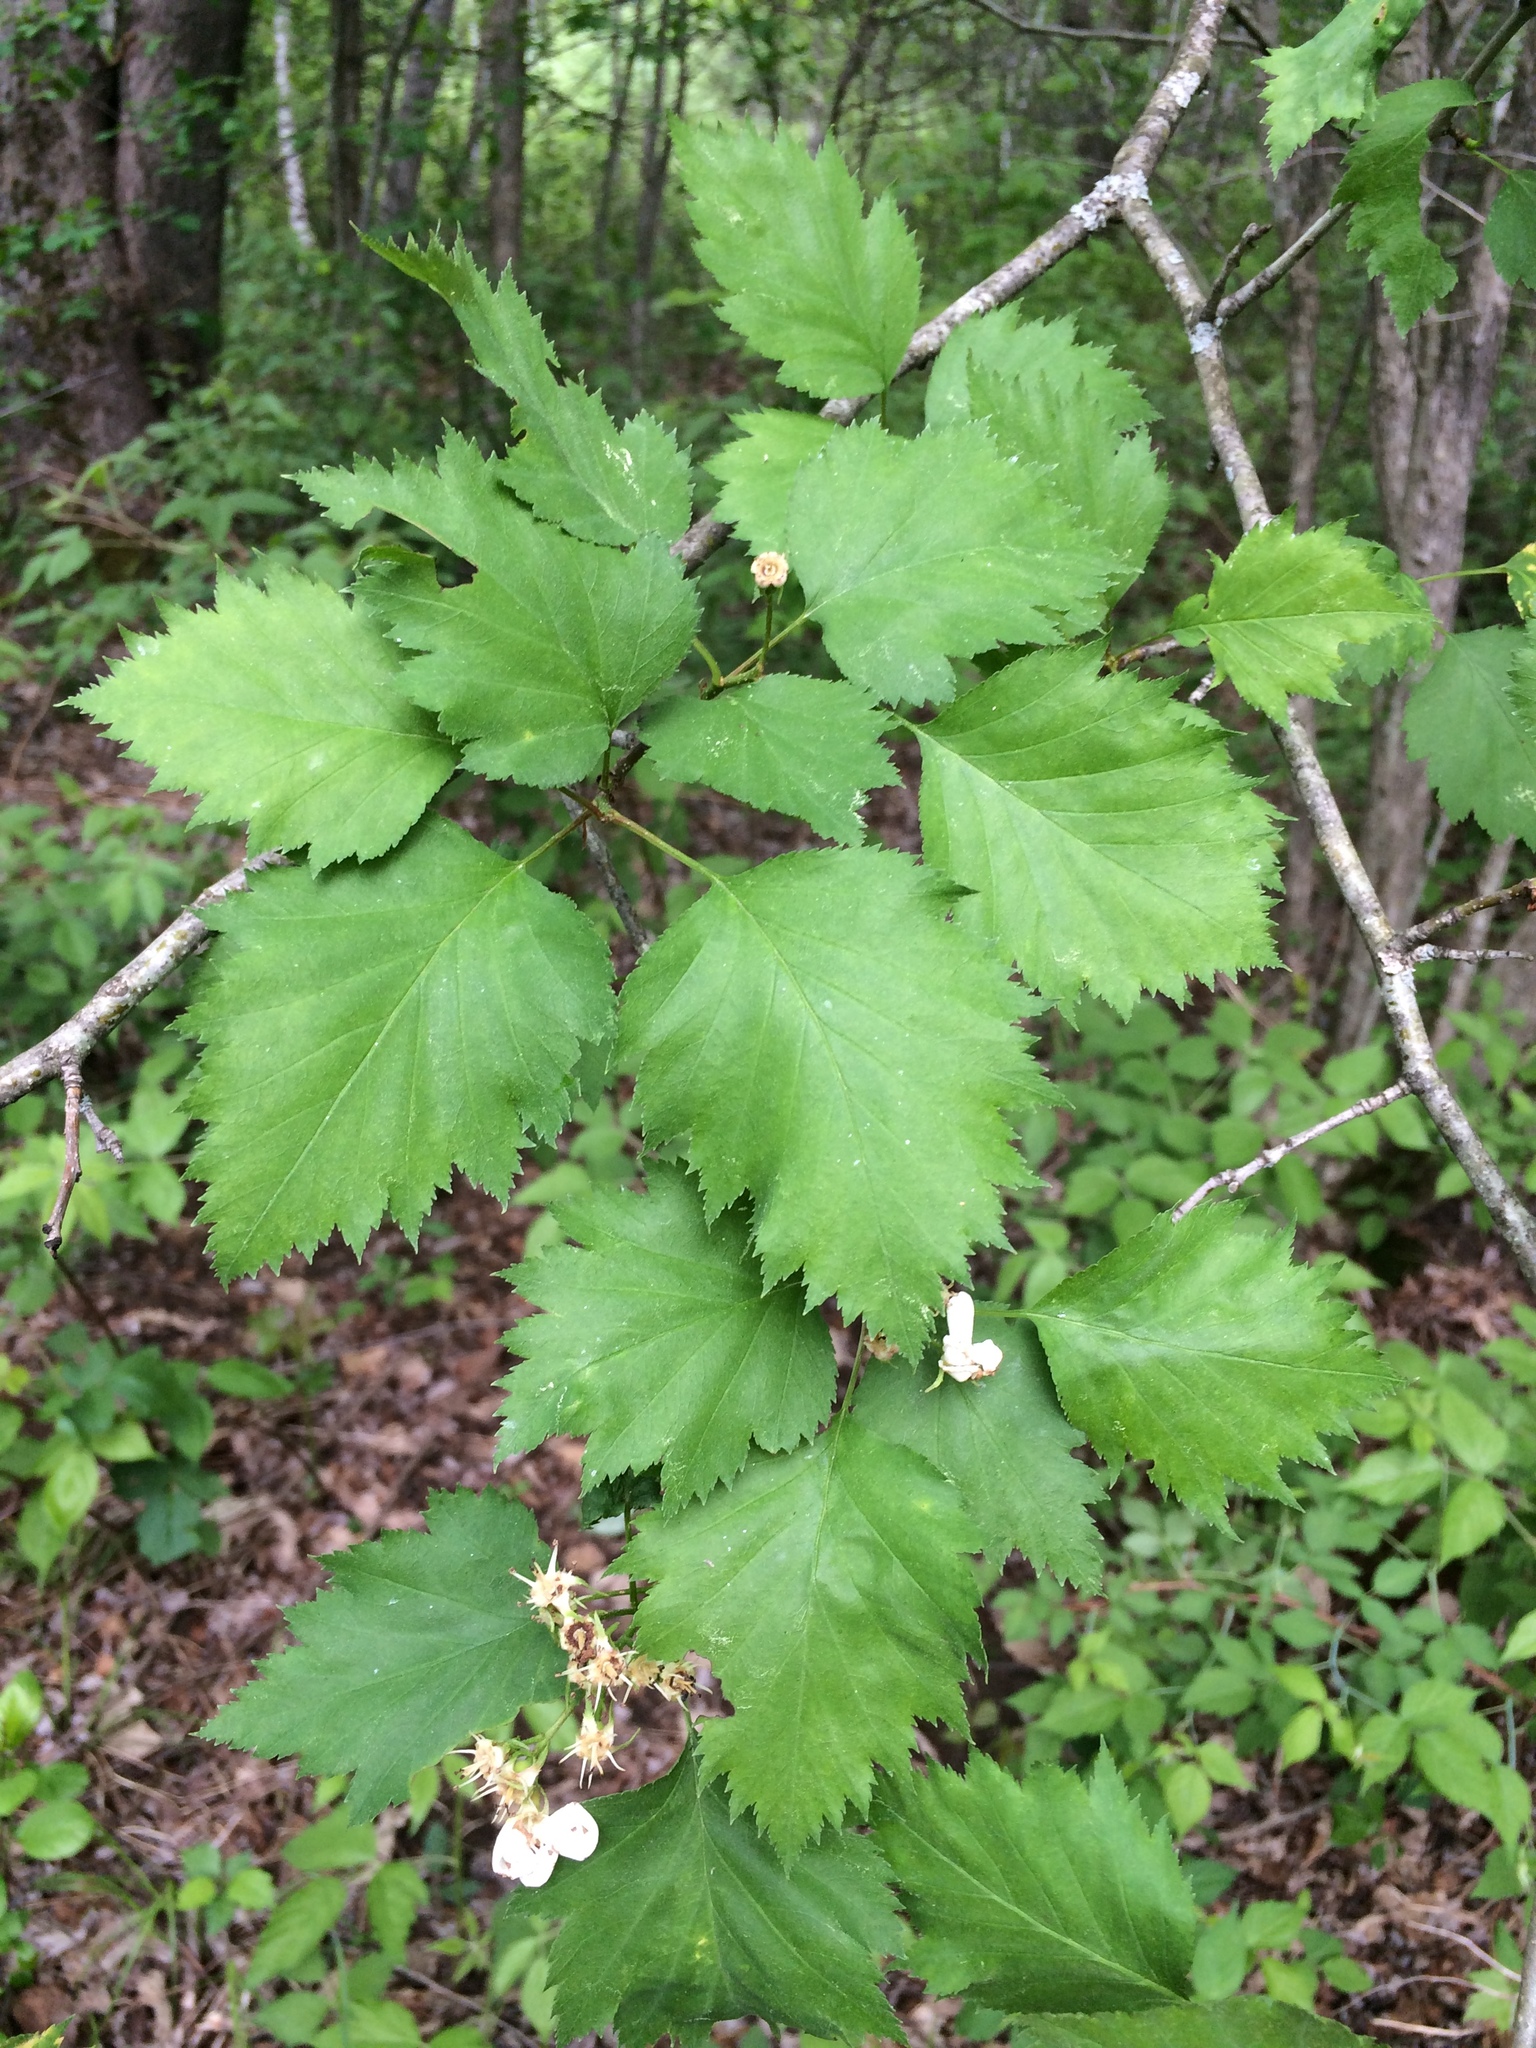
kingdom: Plantae
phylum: Tracheophyta
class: Magnoliopsida
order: Rosales
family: Rosaceae
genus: Crataegus
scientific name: Crataegus flabellata
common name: Bosc's hawthorn
